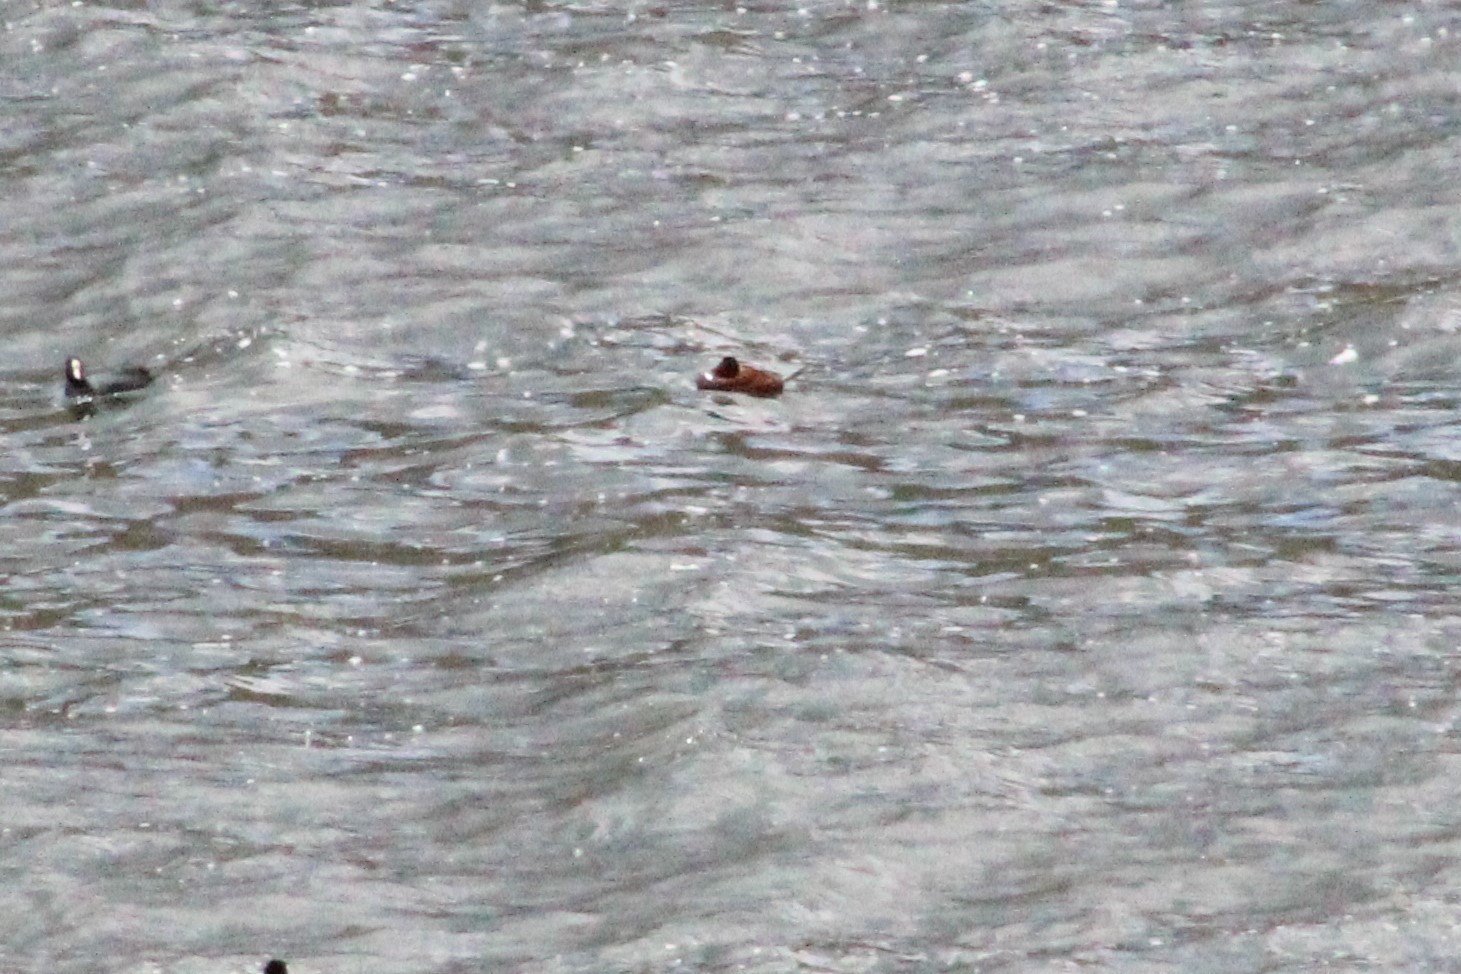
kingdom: Animalia
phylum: Chordata
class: Aves
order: Anseriformes
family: Anatidae
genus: Oxyura
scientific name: Oxyura ferruginea
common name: Andean duck
